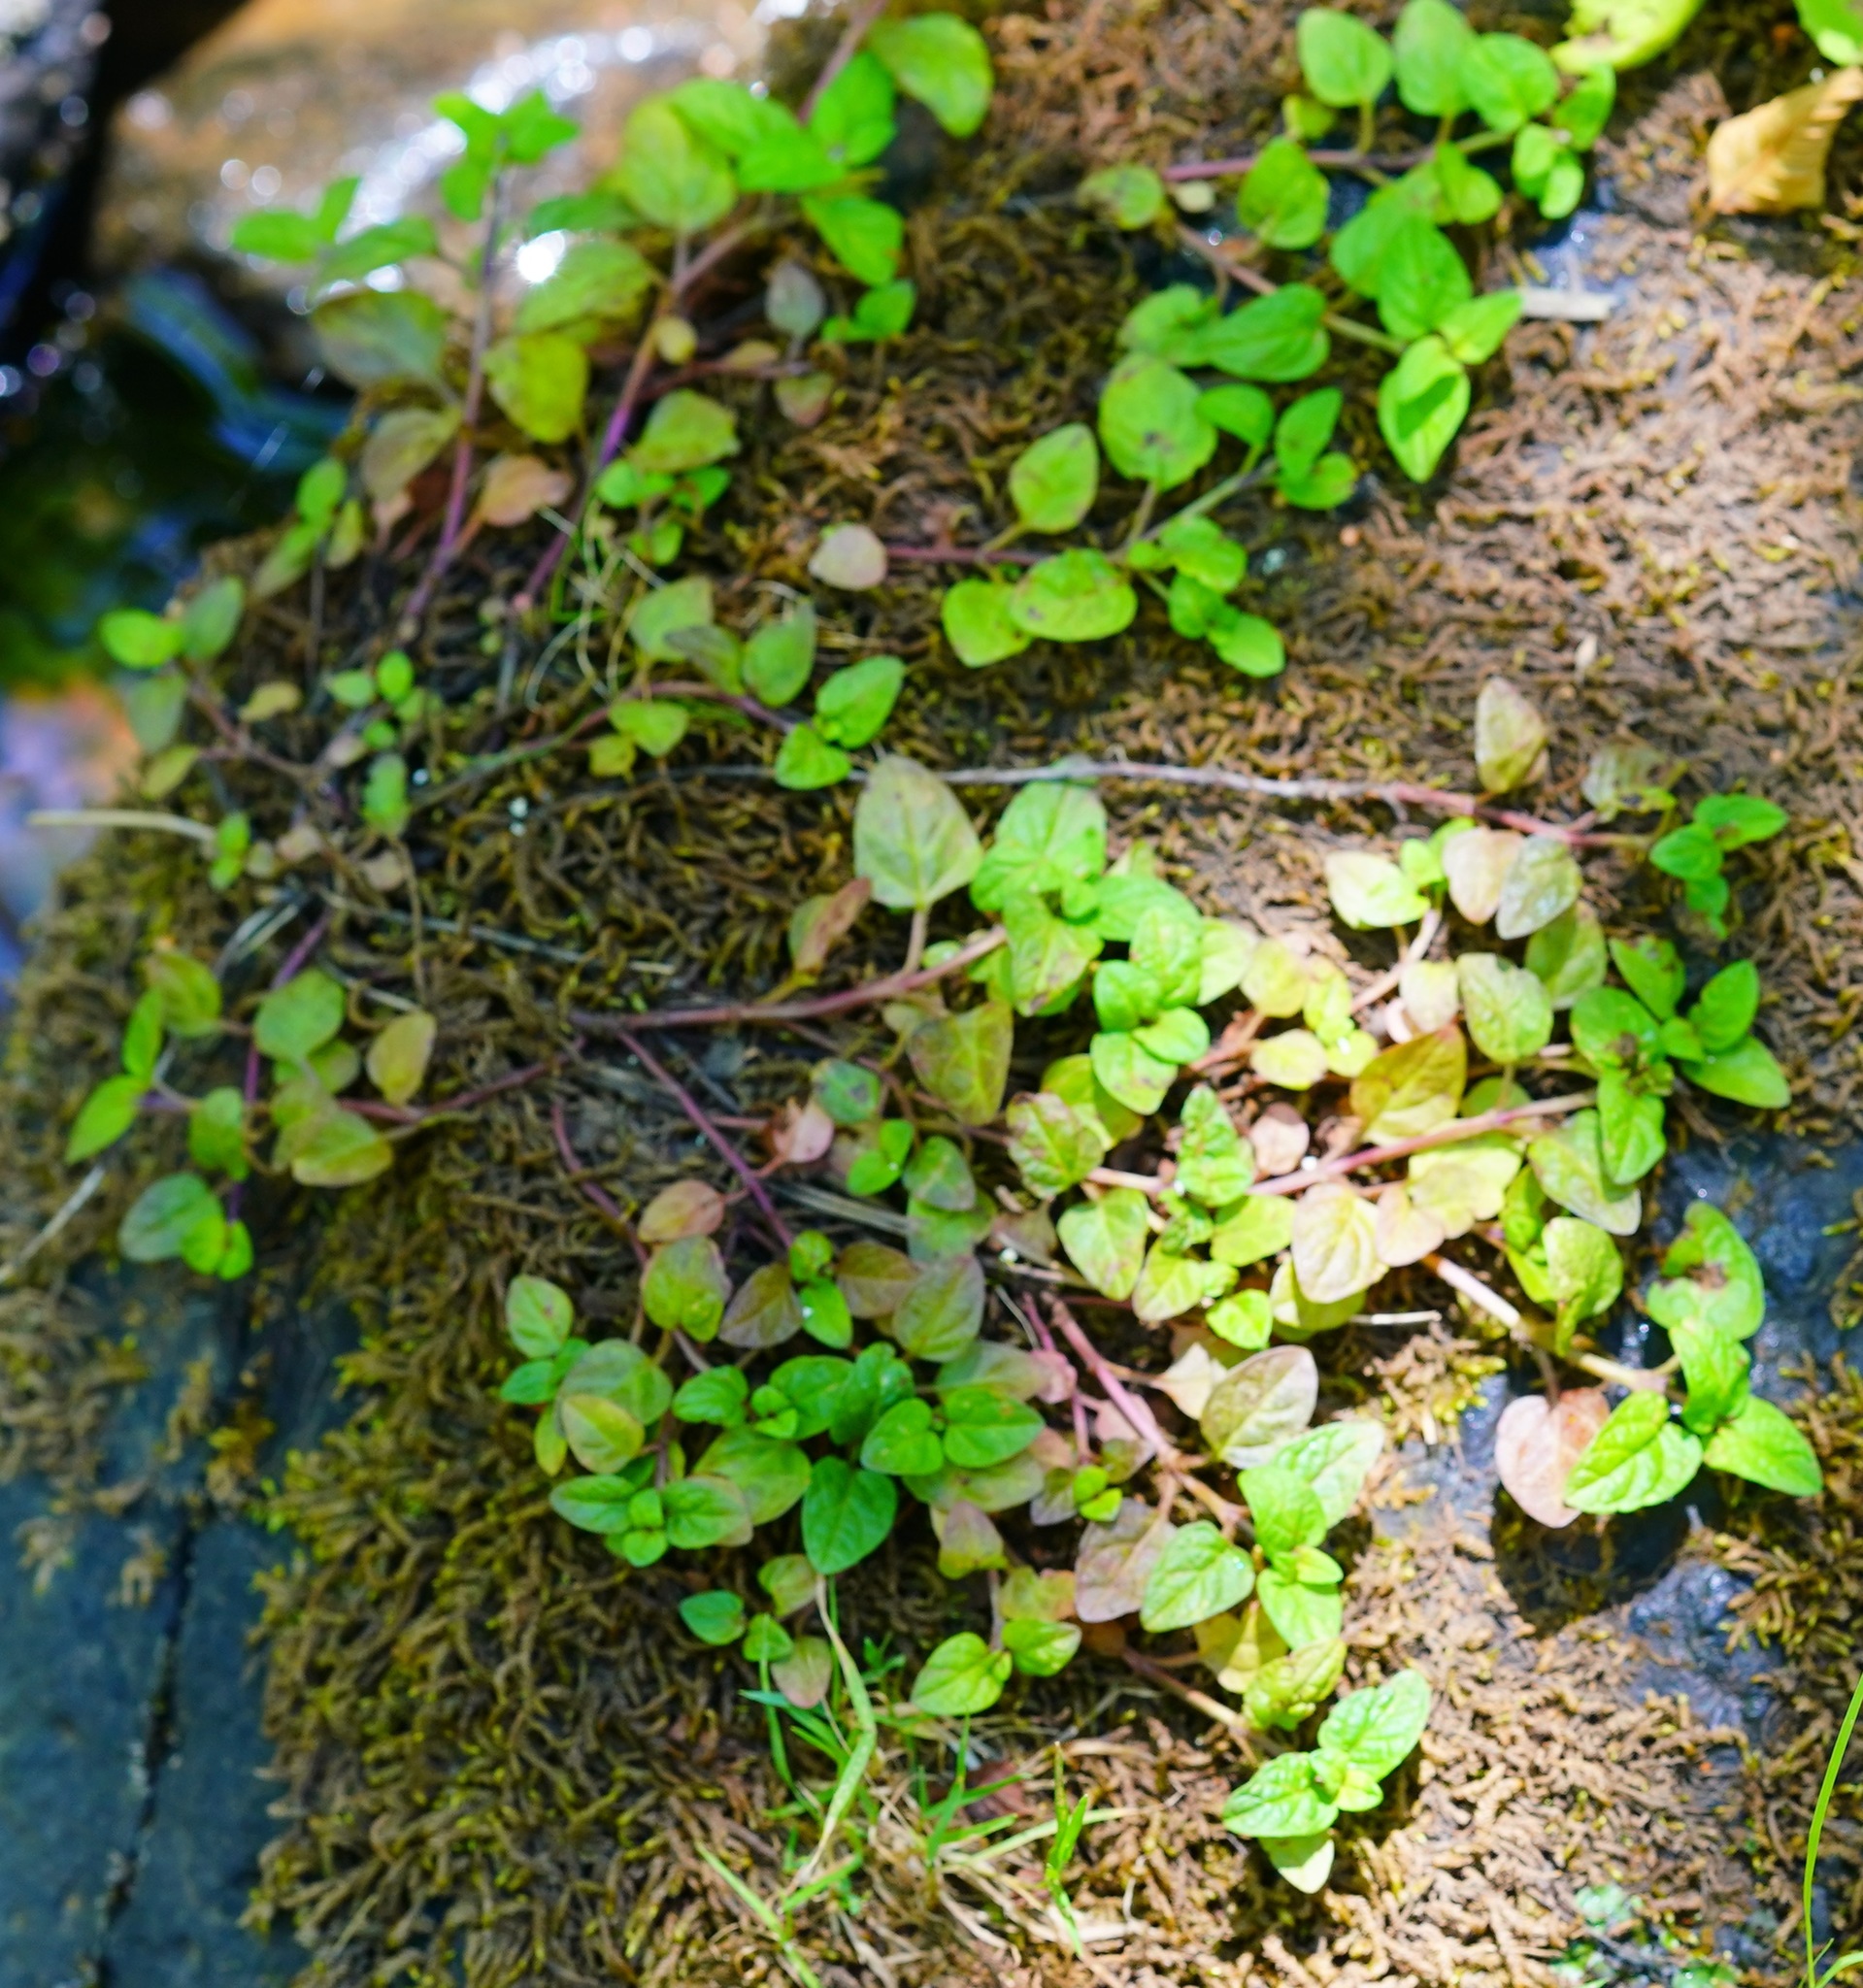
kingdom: Plantae
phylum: Tracheophyta
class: Magnoliopsida
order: Lamiales
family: Lamiaceae
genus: Prunella
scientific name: Prunella vulgaris
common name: Heal-all
